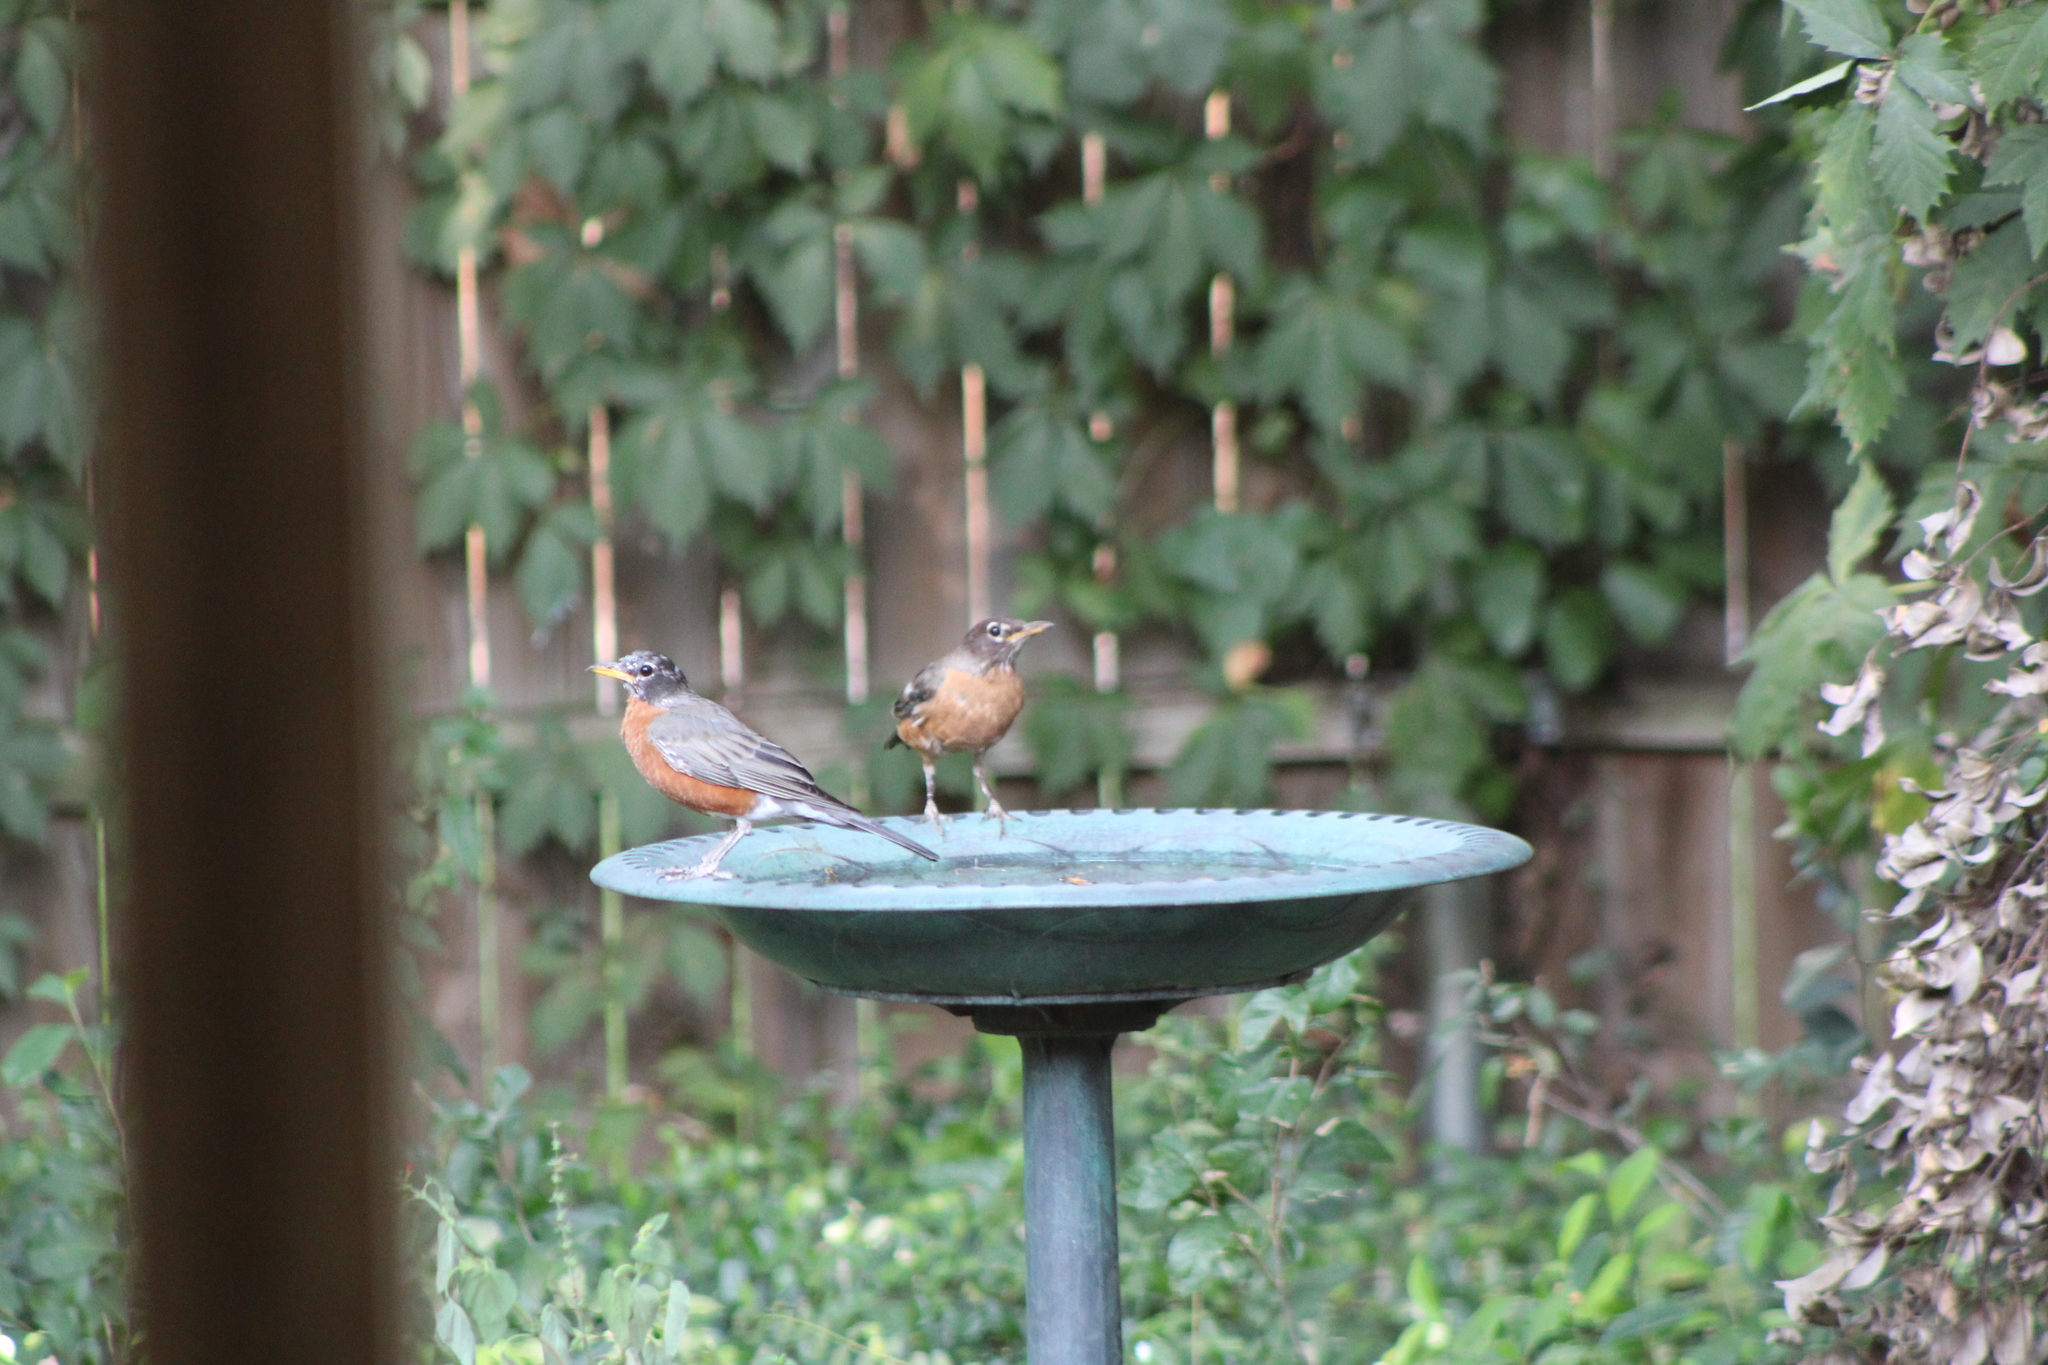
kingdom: Animalia
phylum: Chordata
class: Aves
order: Passeriformes
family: Turdidae
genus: Turdus
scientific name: Turdus migratorius
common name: American robin
